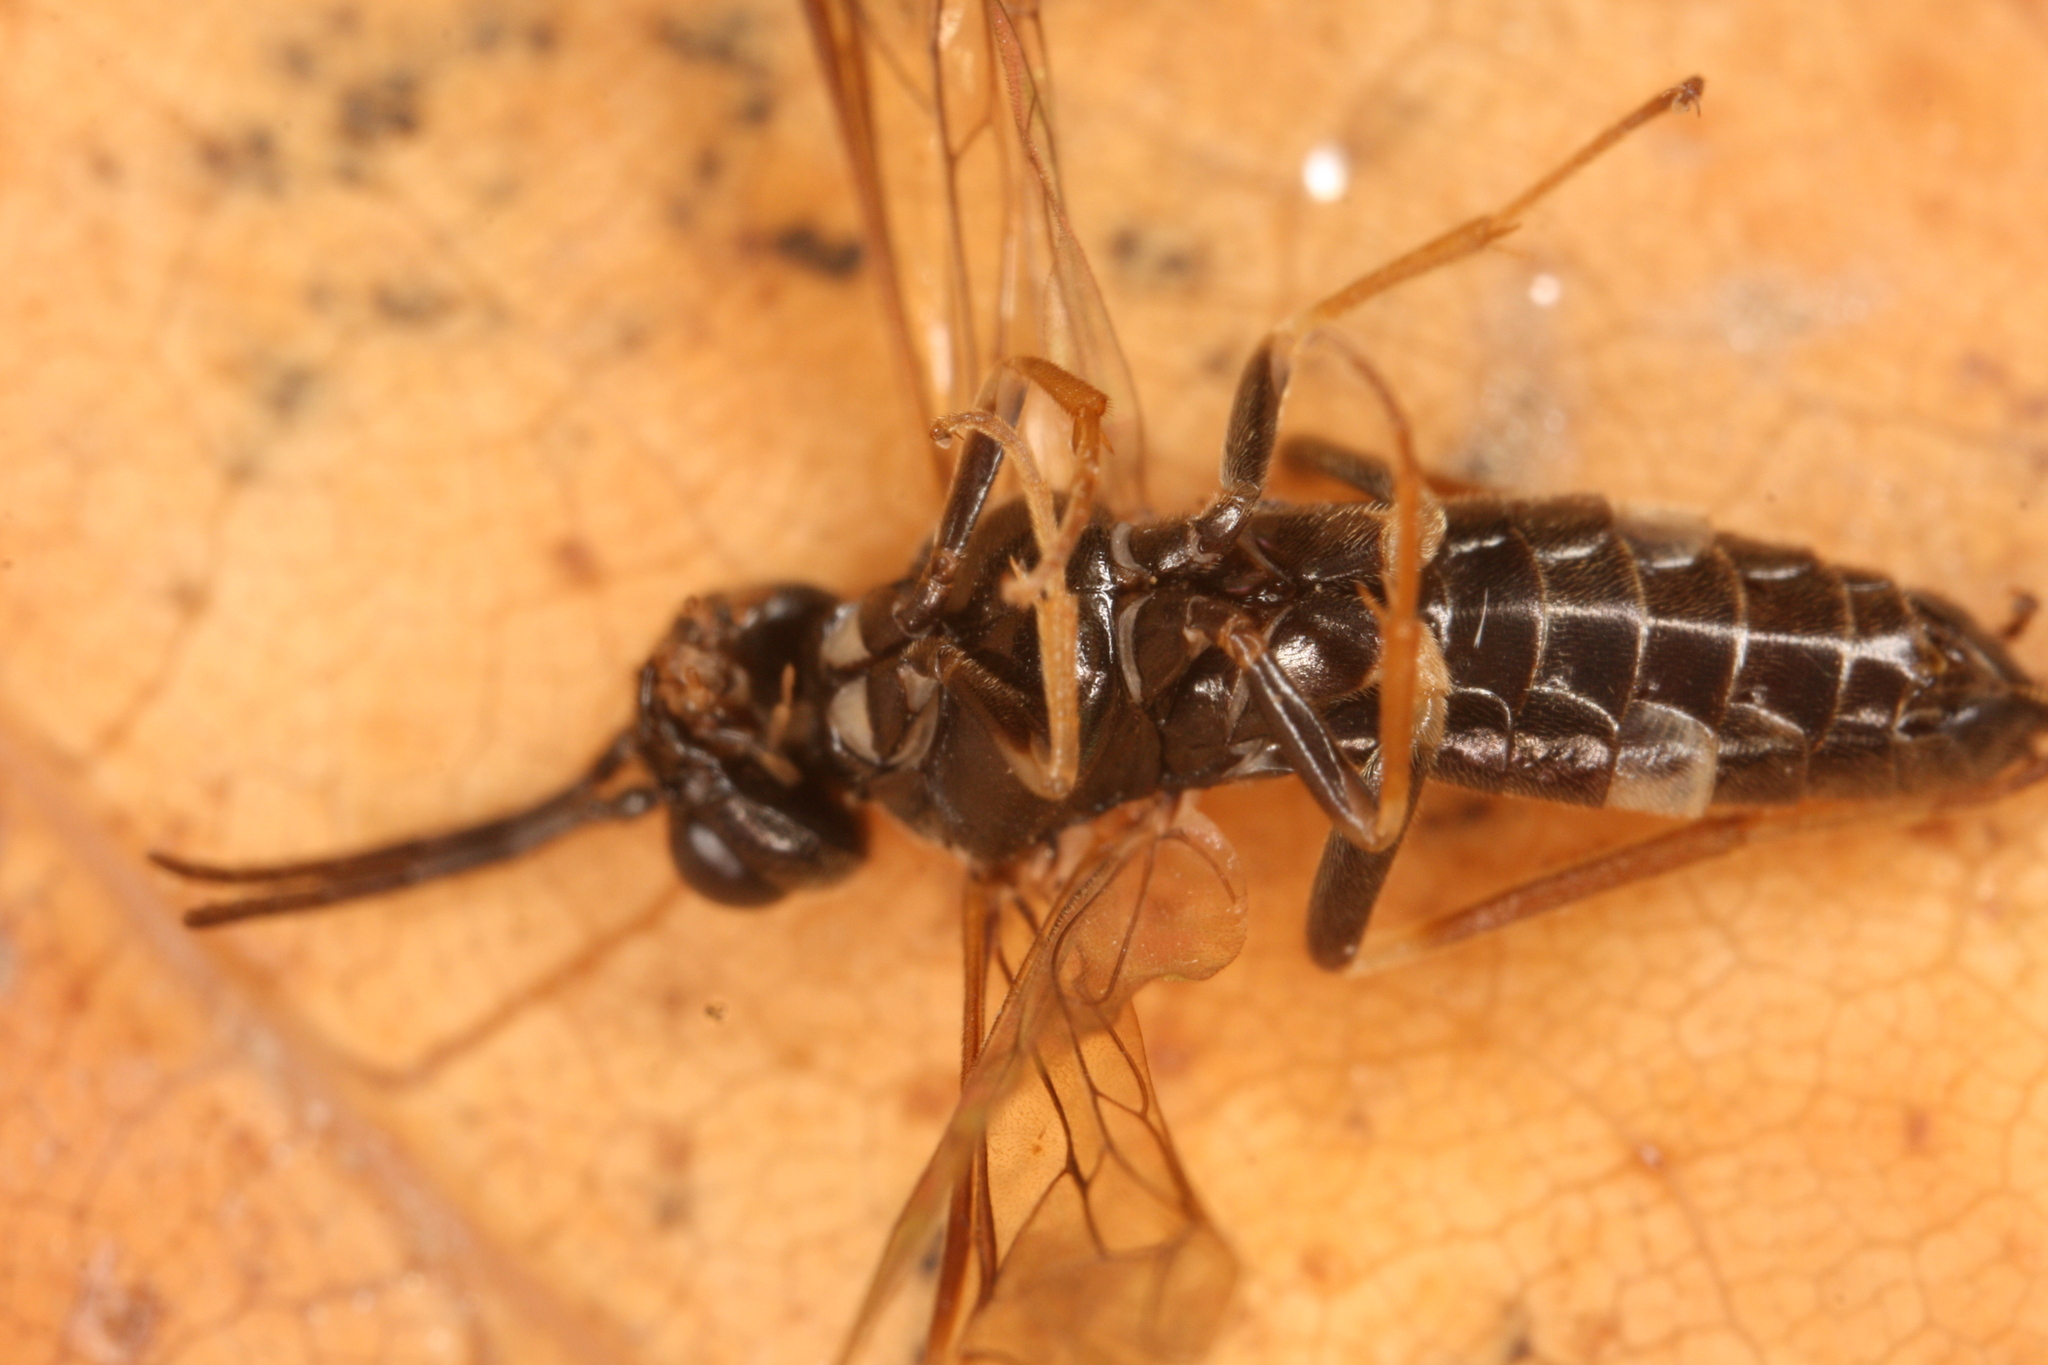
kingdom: Animalia
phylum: Arthropoda
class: Insecta
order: Hymenoptera
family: Tenthredinidae
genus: Allantus
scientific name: Allantus cinctus
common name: Curled rose sawfly
